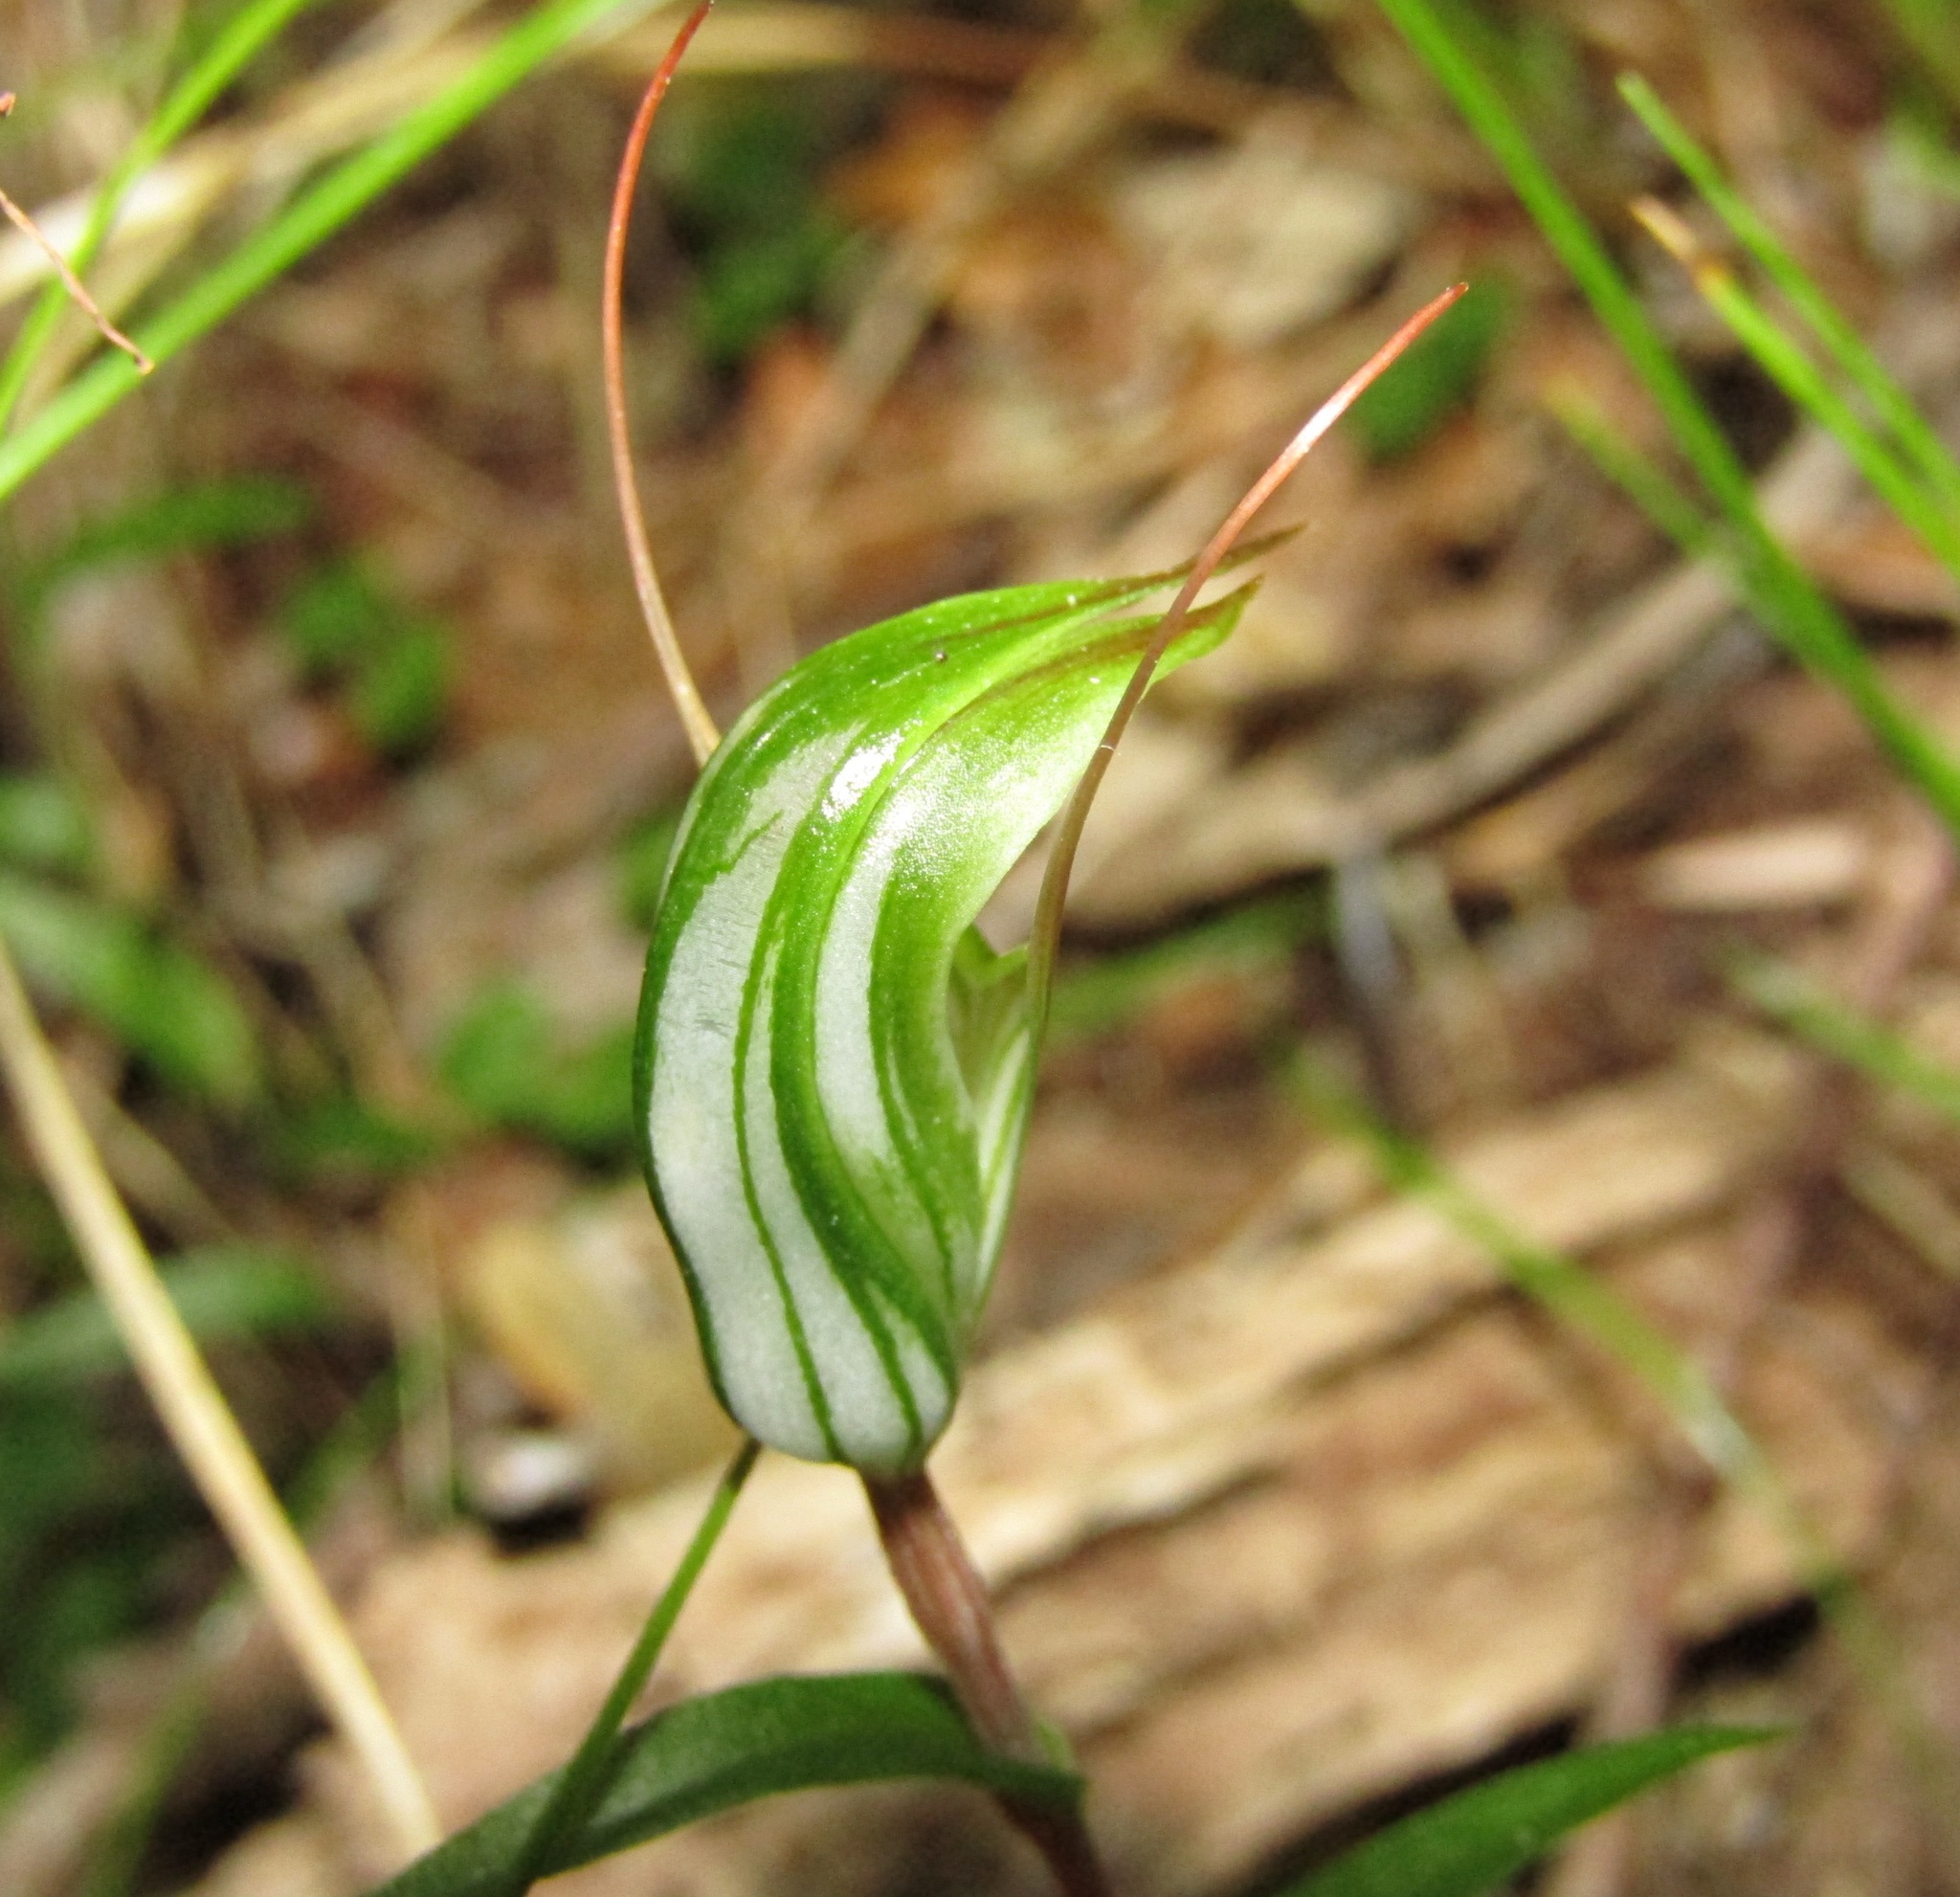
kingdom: Plantae
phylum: Tracheophyta
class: Liliopsida
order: Asparagales
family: Orchidaceae
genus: Pterostylis
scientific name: Pterostylis alobula
